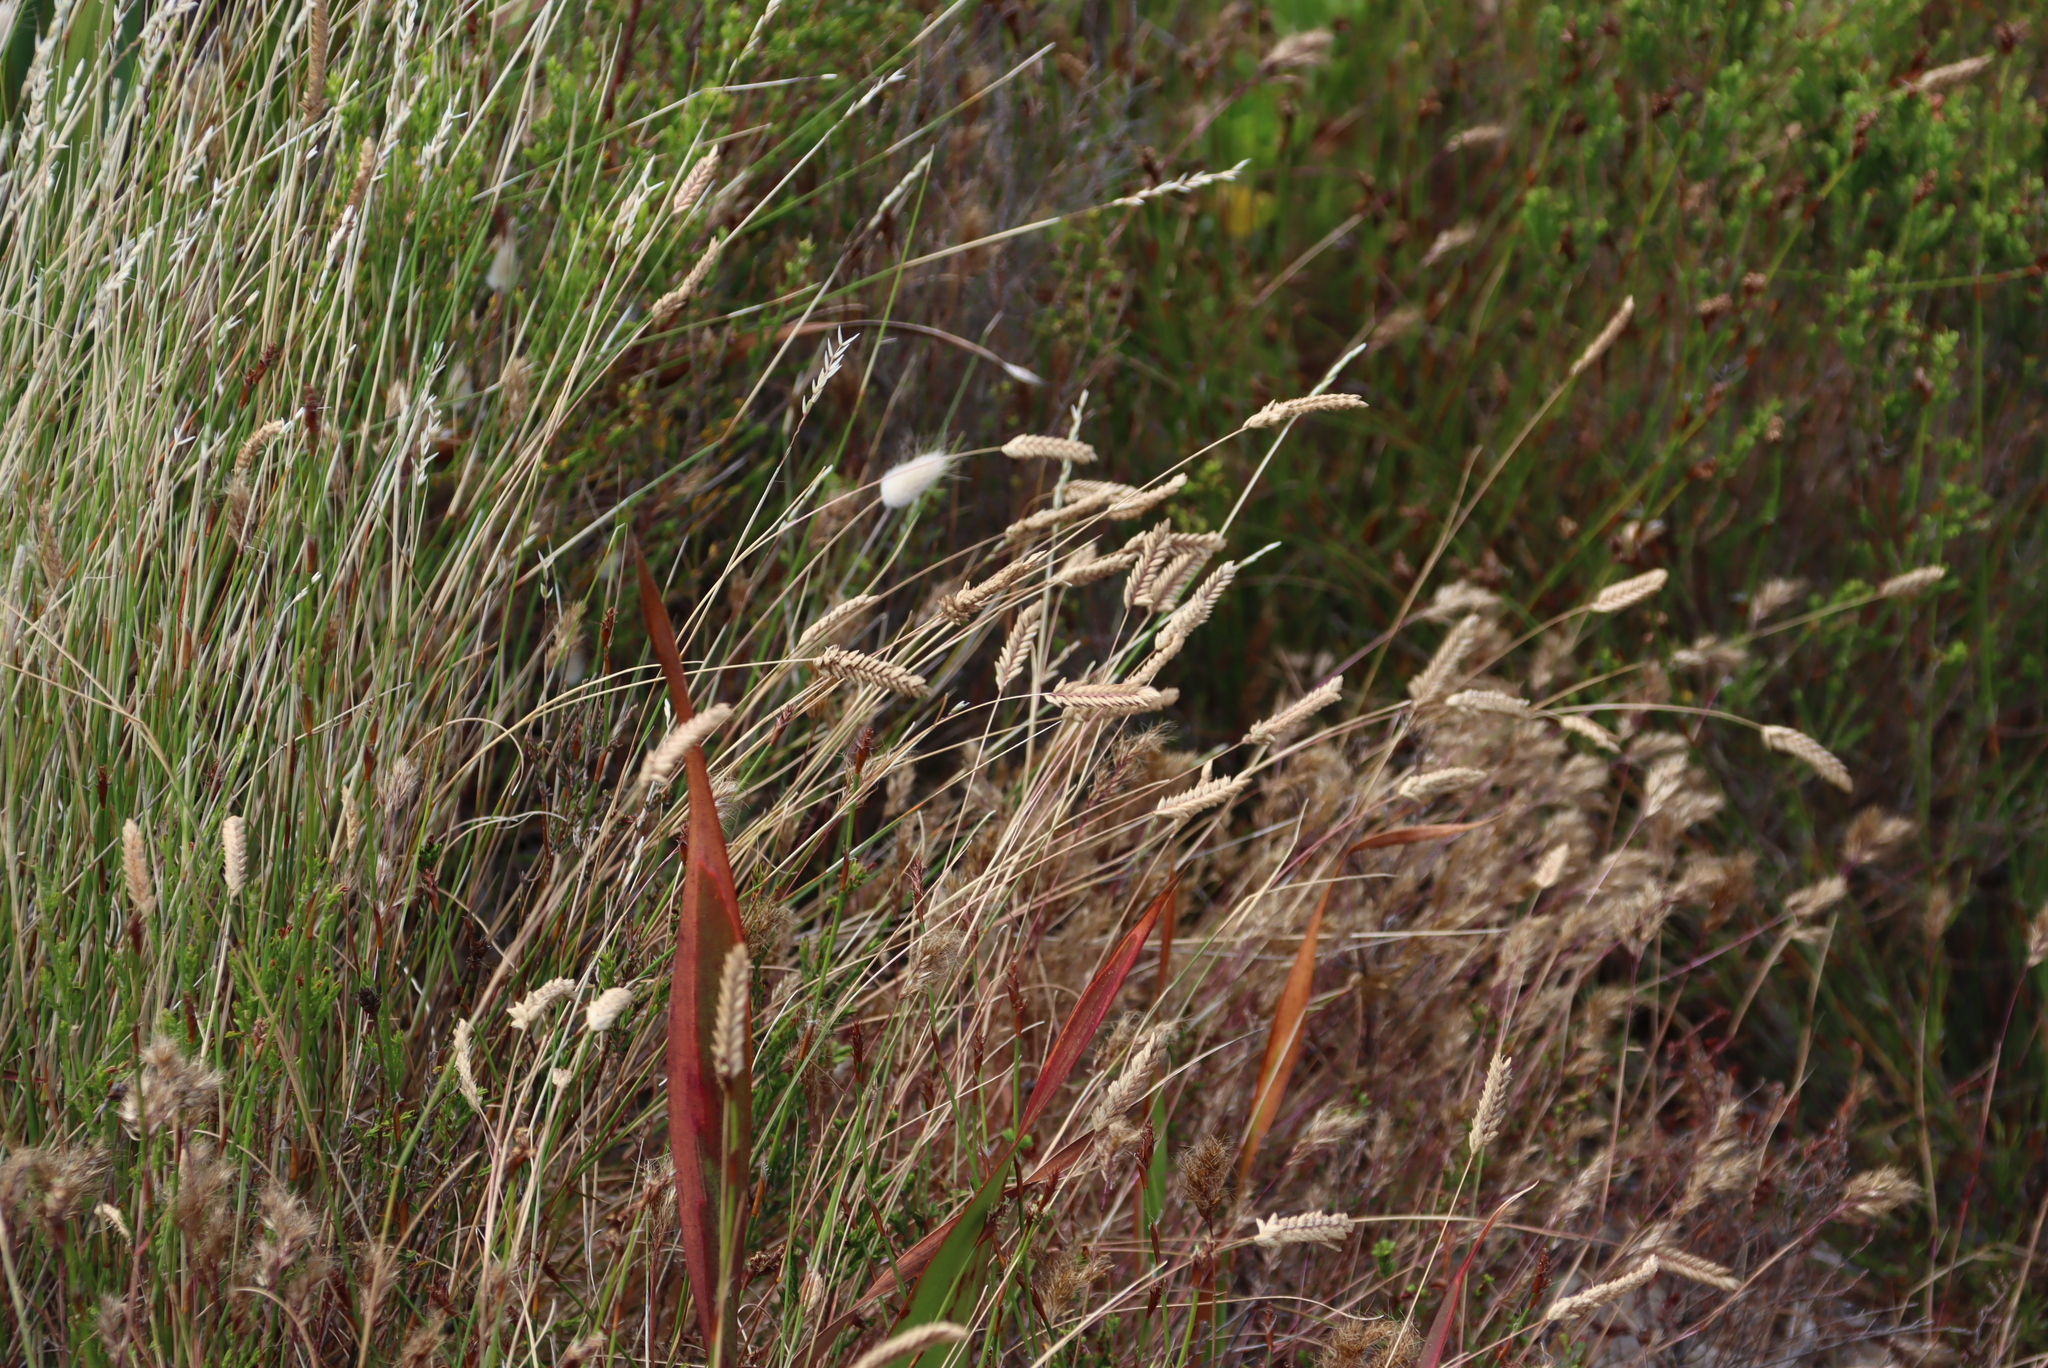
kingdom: Plantae
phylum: Tracheophyta
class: Liliopsida
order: Poales
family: Poaceae
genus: Tribolium
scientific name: Tribolium uniolae
